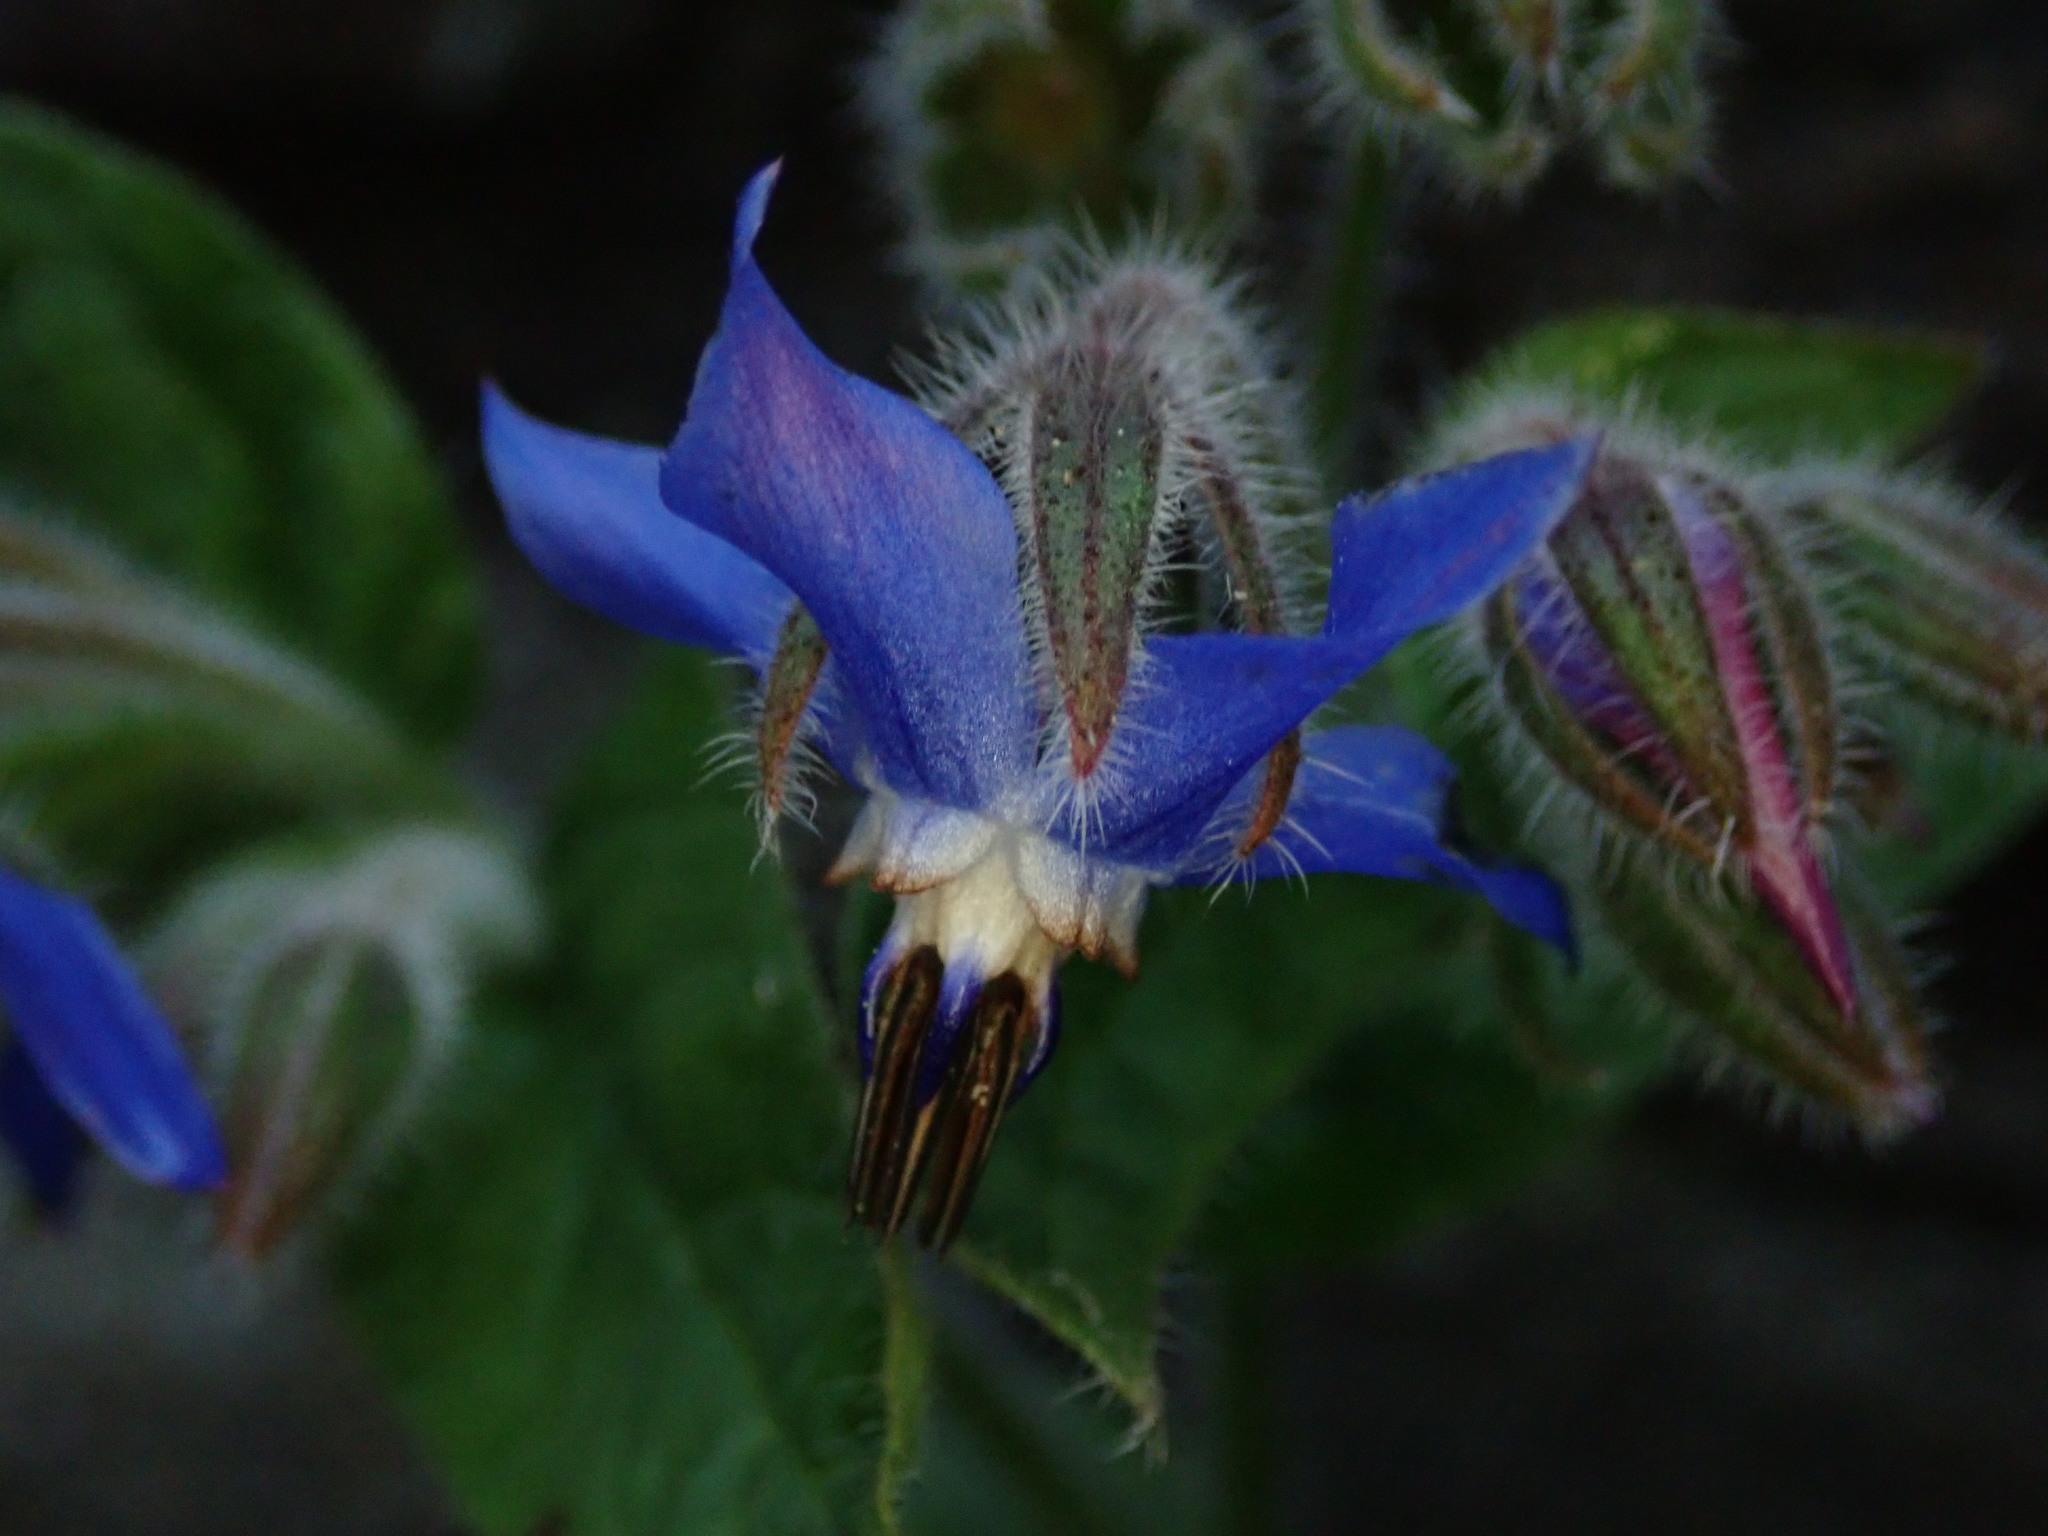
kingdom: Plantae
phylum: Tracheophyta
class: Magnoliopsida
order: Boraginales
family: Boraginaceae
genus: Borago
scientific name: Borago officinalis
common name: Borage
